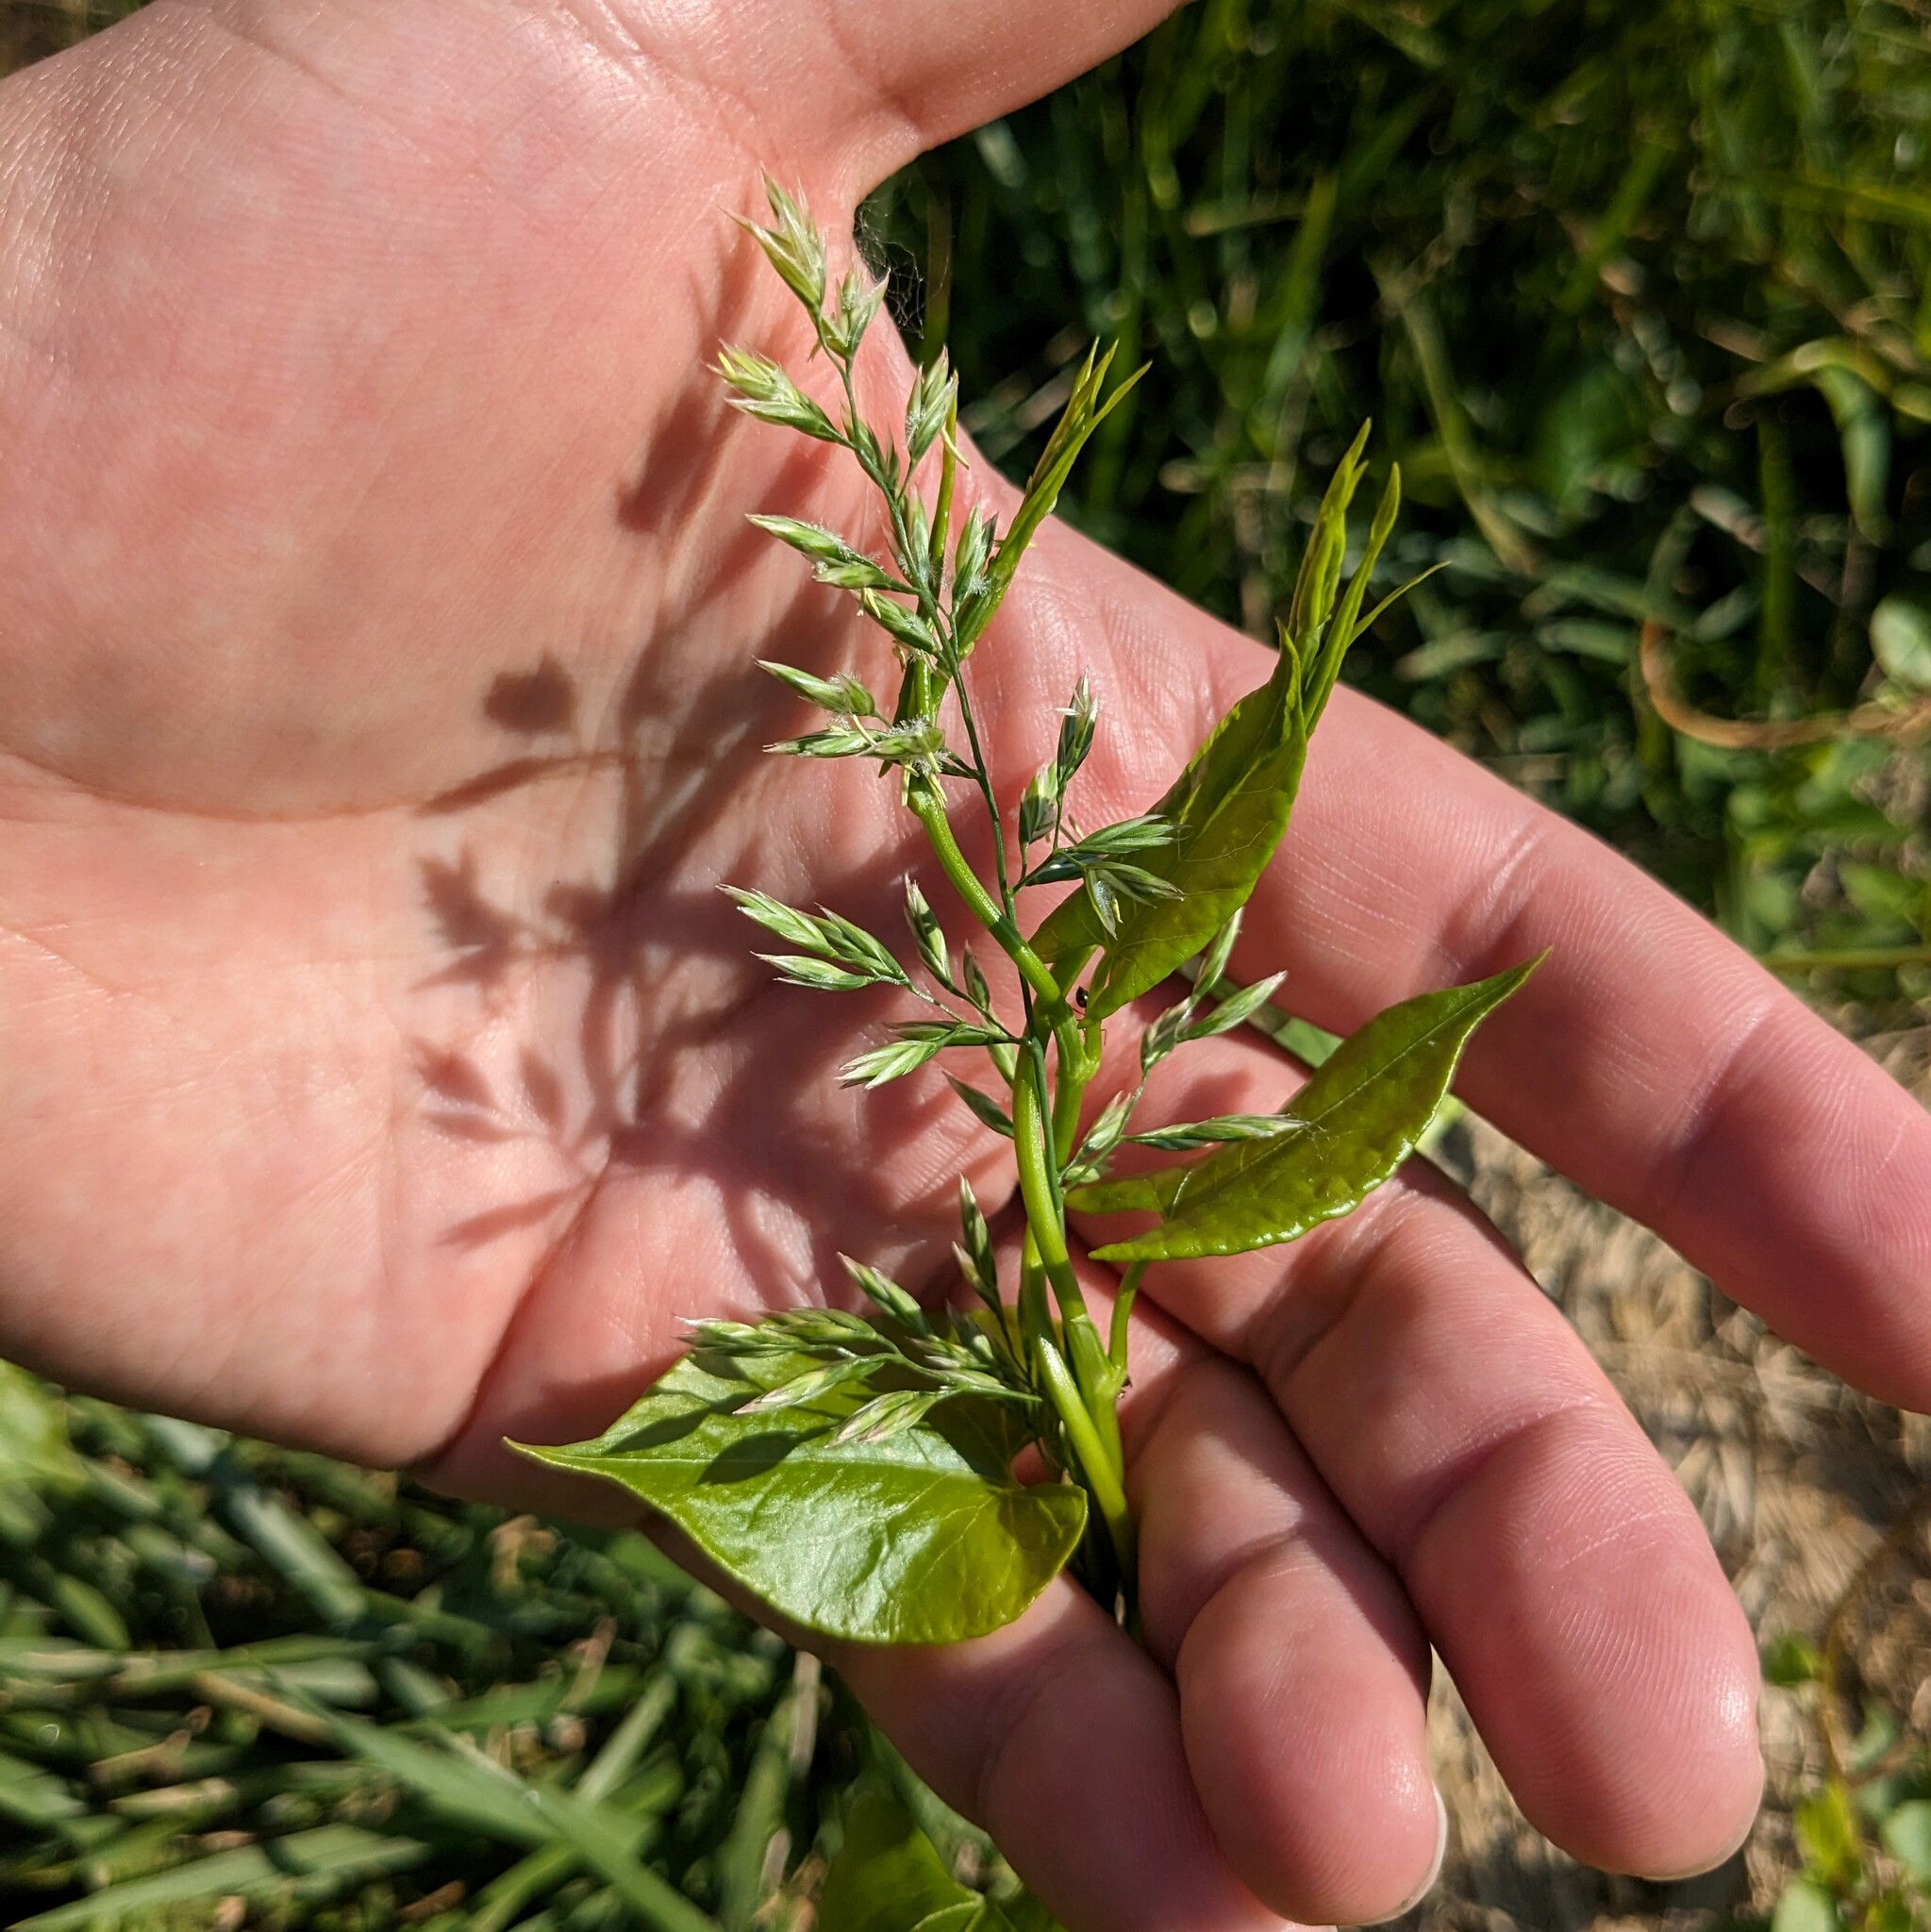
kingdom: Plantae
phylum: Tracheophyta
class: Liliopsida
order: Poales
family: Poaceae
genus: Lolium
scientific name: Lolium arundinaceum
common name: Reed fescue
